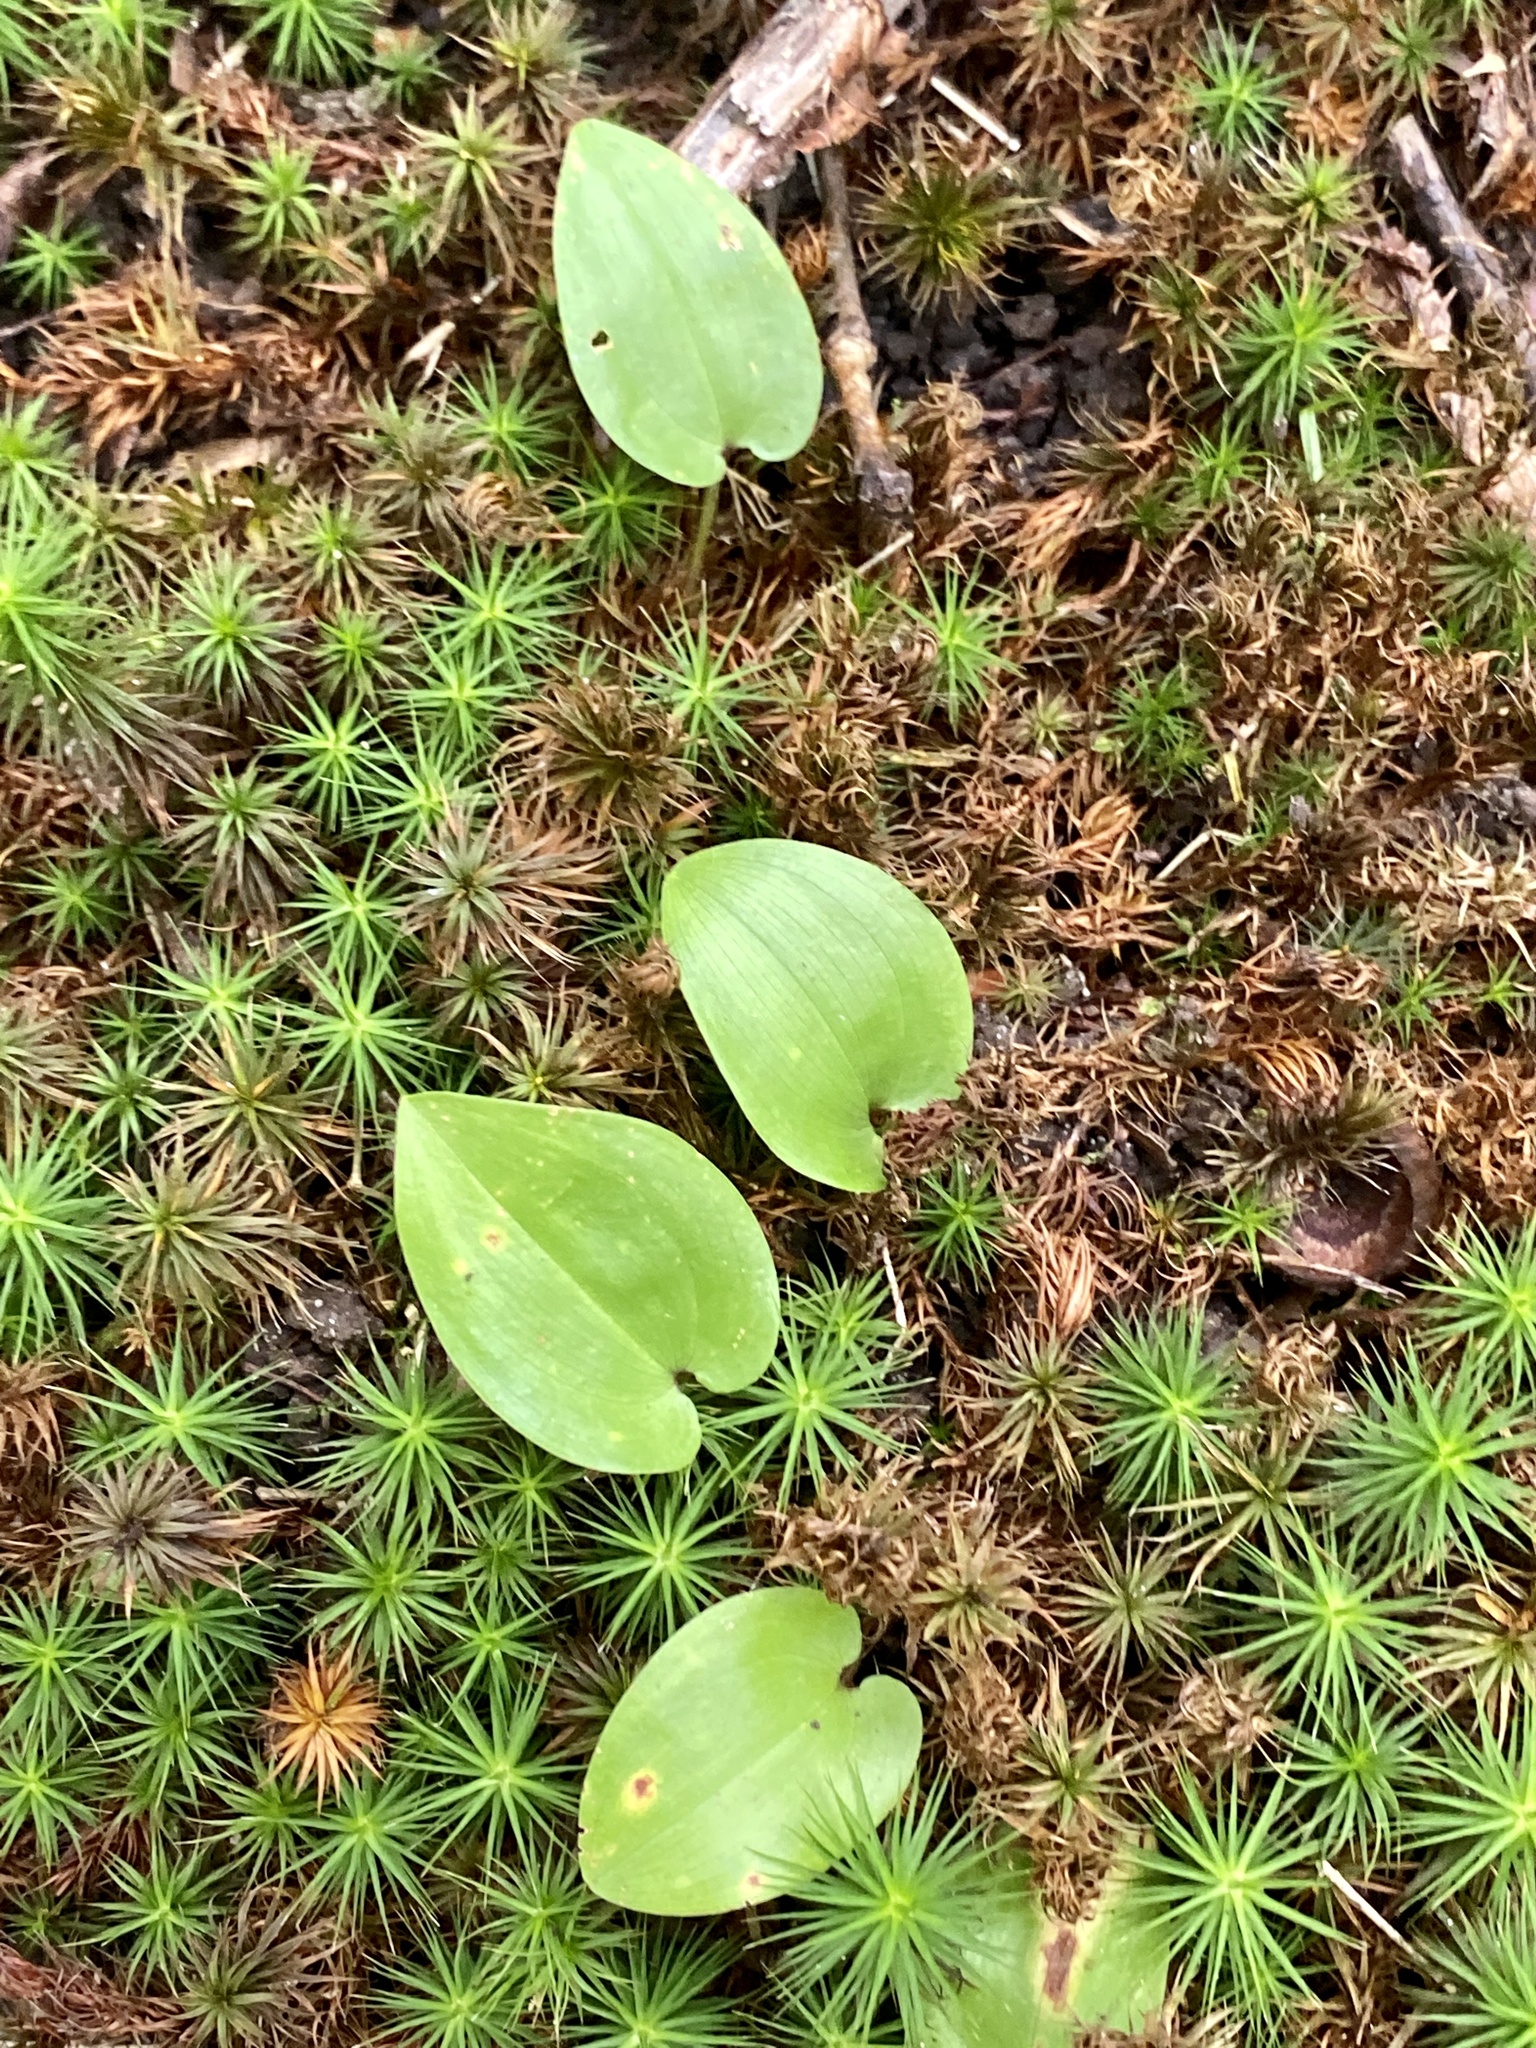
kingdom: Plantae
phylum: Tracheophyta
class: Liliopsida
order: Asparagales
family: Asparagaceae
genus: Maianthemum
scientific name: Maianthemum canadense
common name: False lily-of-the-valley
